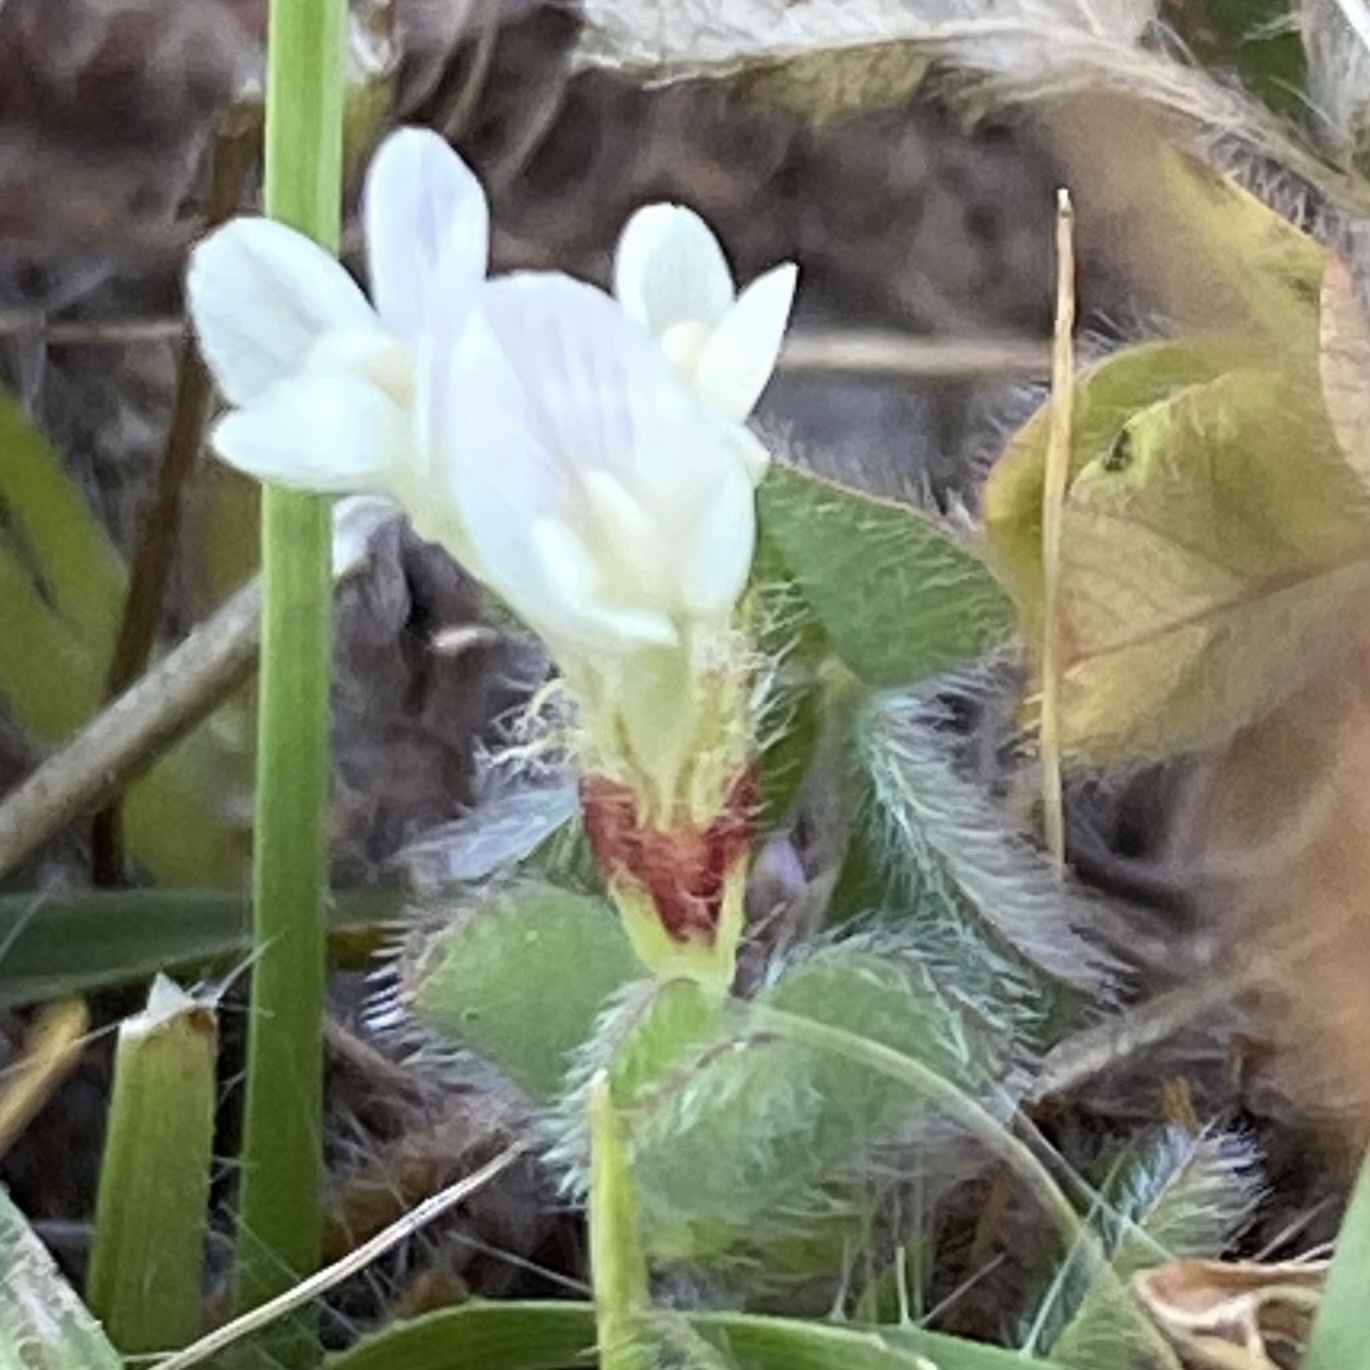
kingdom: Plantae
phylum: Tracheophyta
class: Magnoliopsida
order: Fabales
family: Fabaceae
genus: Trifolium
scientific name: Trifolium subterraneum
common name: Subterranean clover
